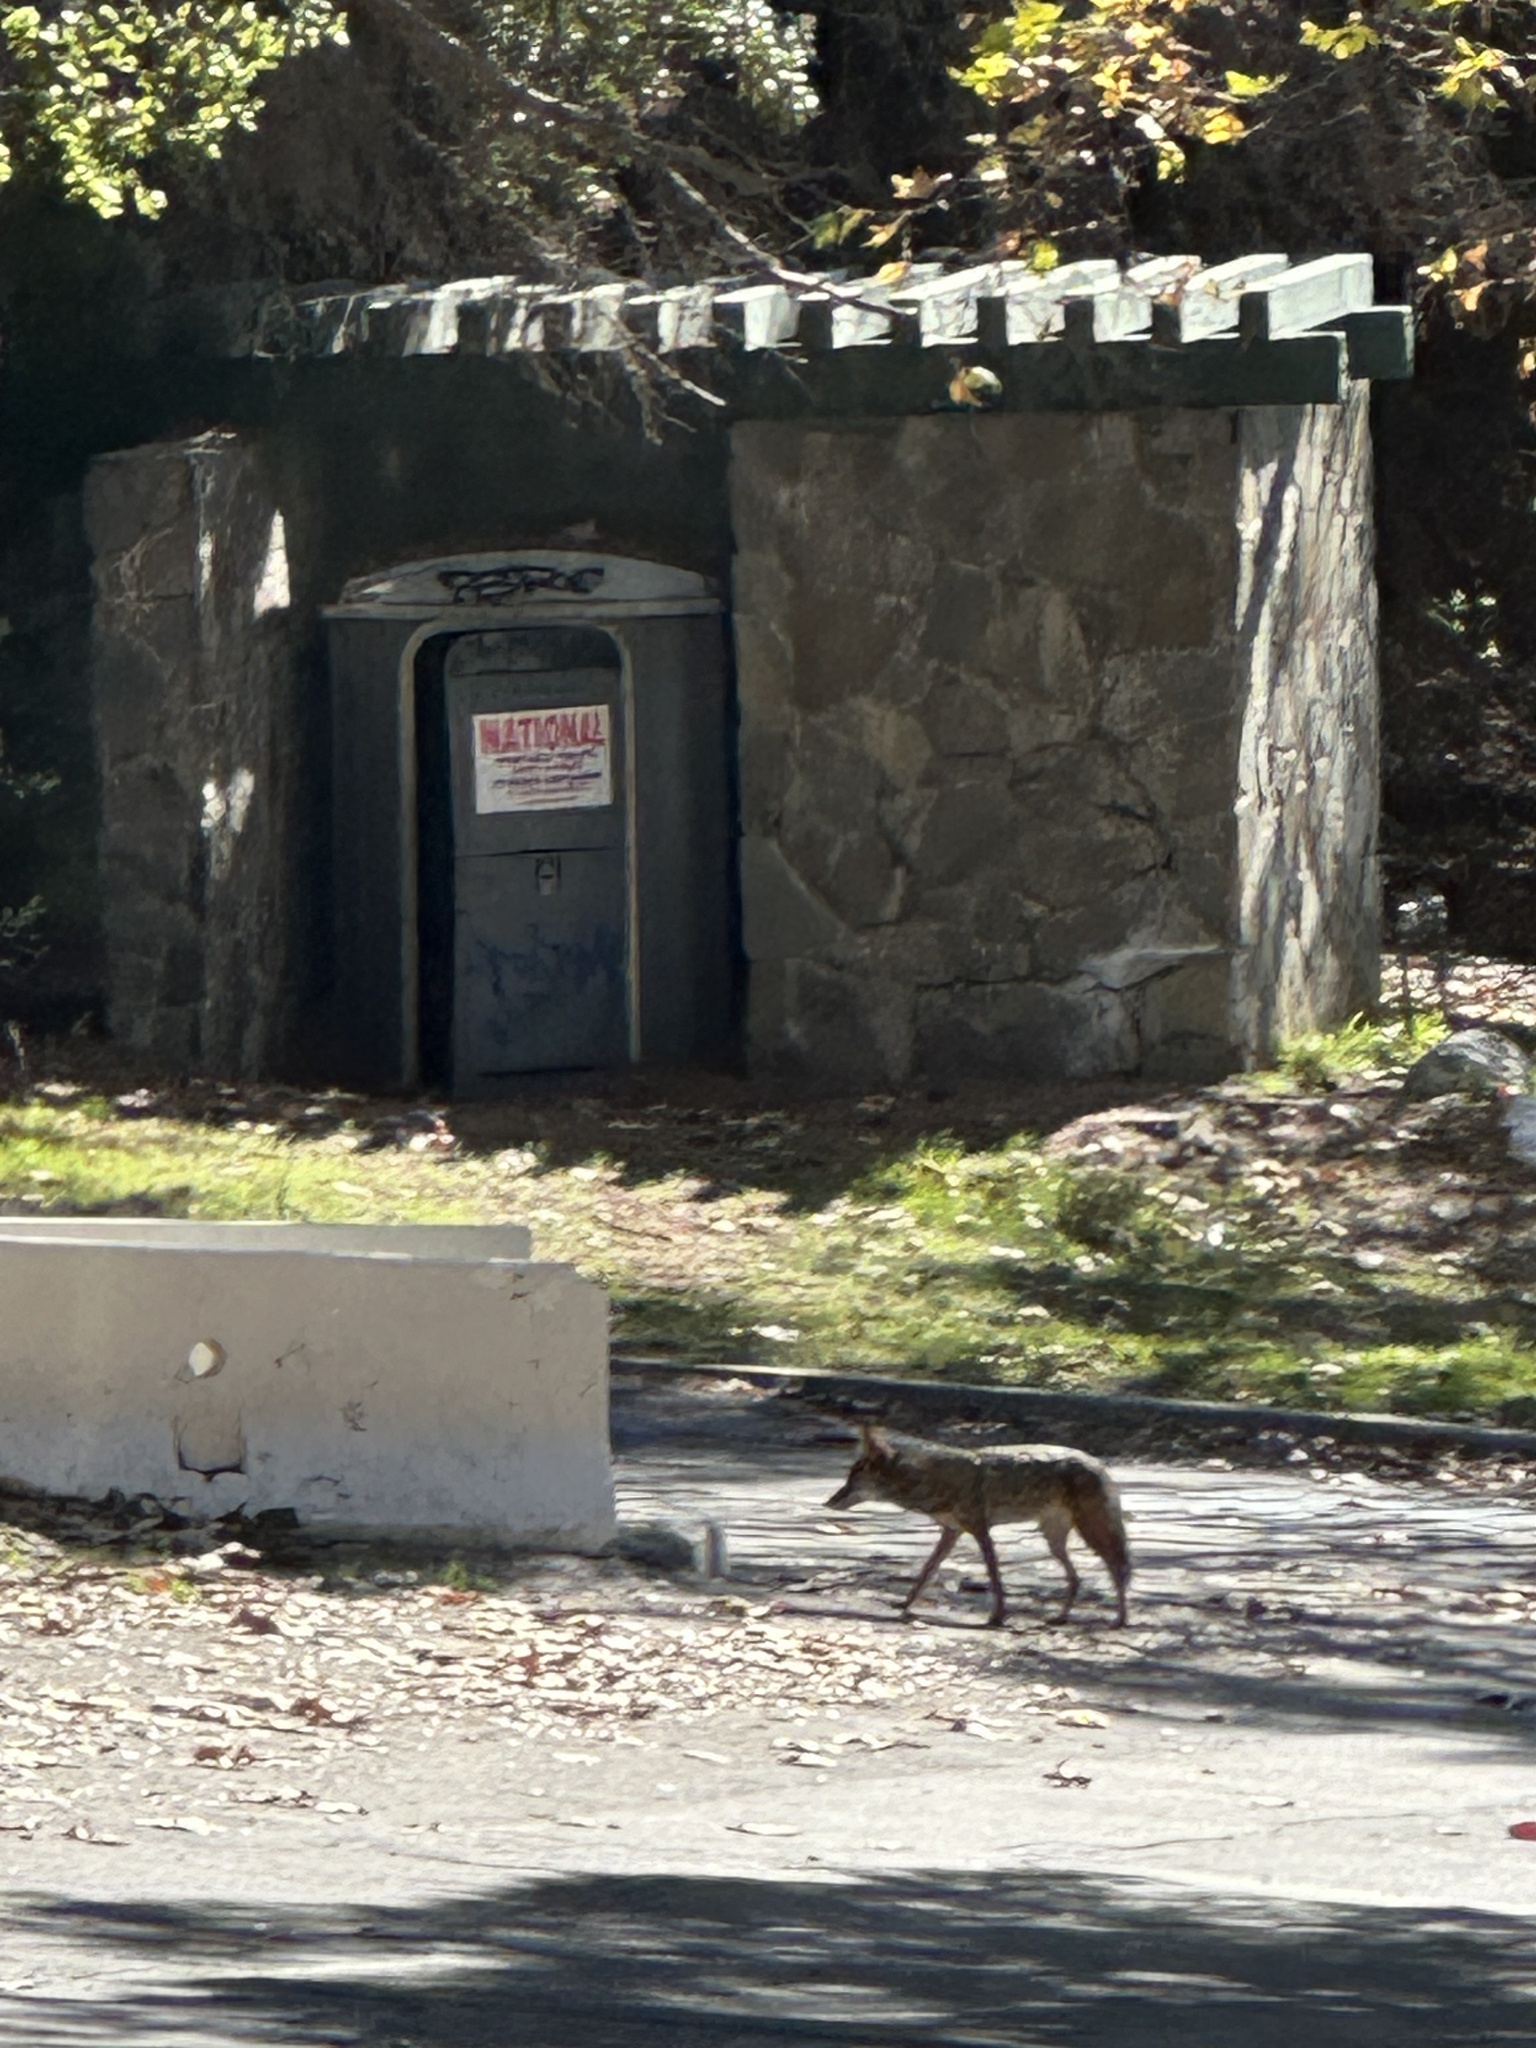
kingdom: Animalia
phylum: Chordata
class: Mammalia
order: Carnivora
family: Canidae
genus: Canis
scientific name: Canis latrans
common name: Coyote
